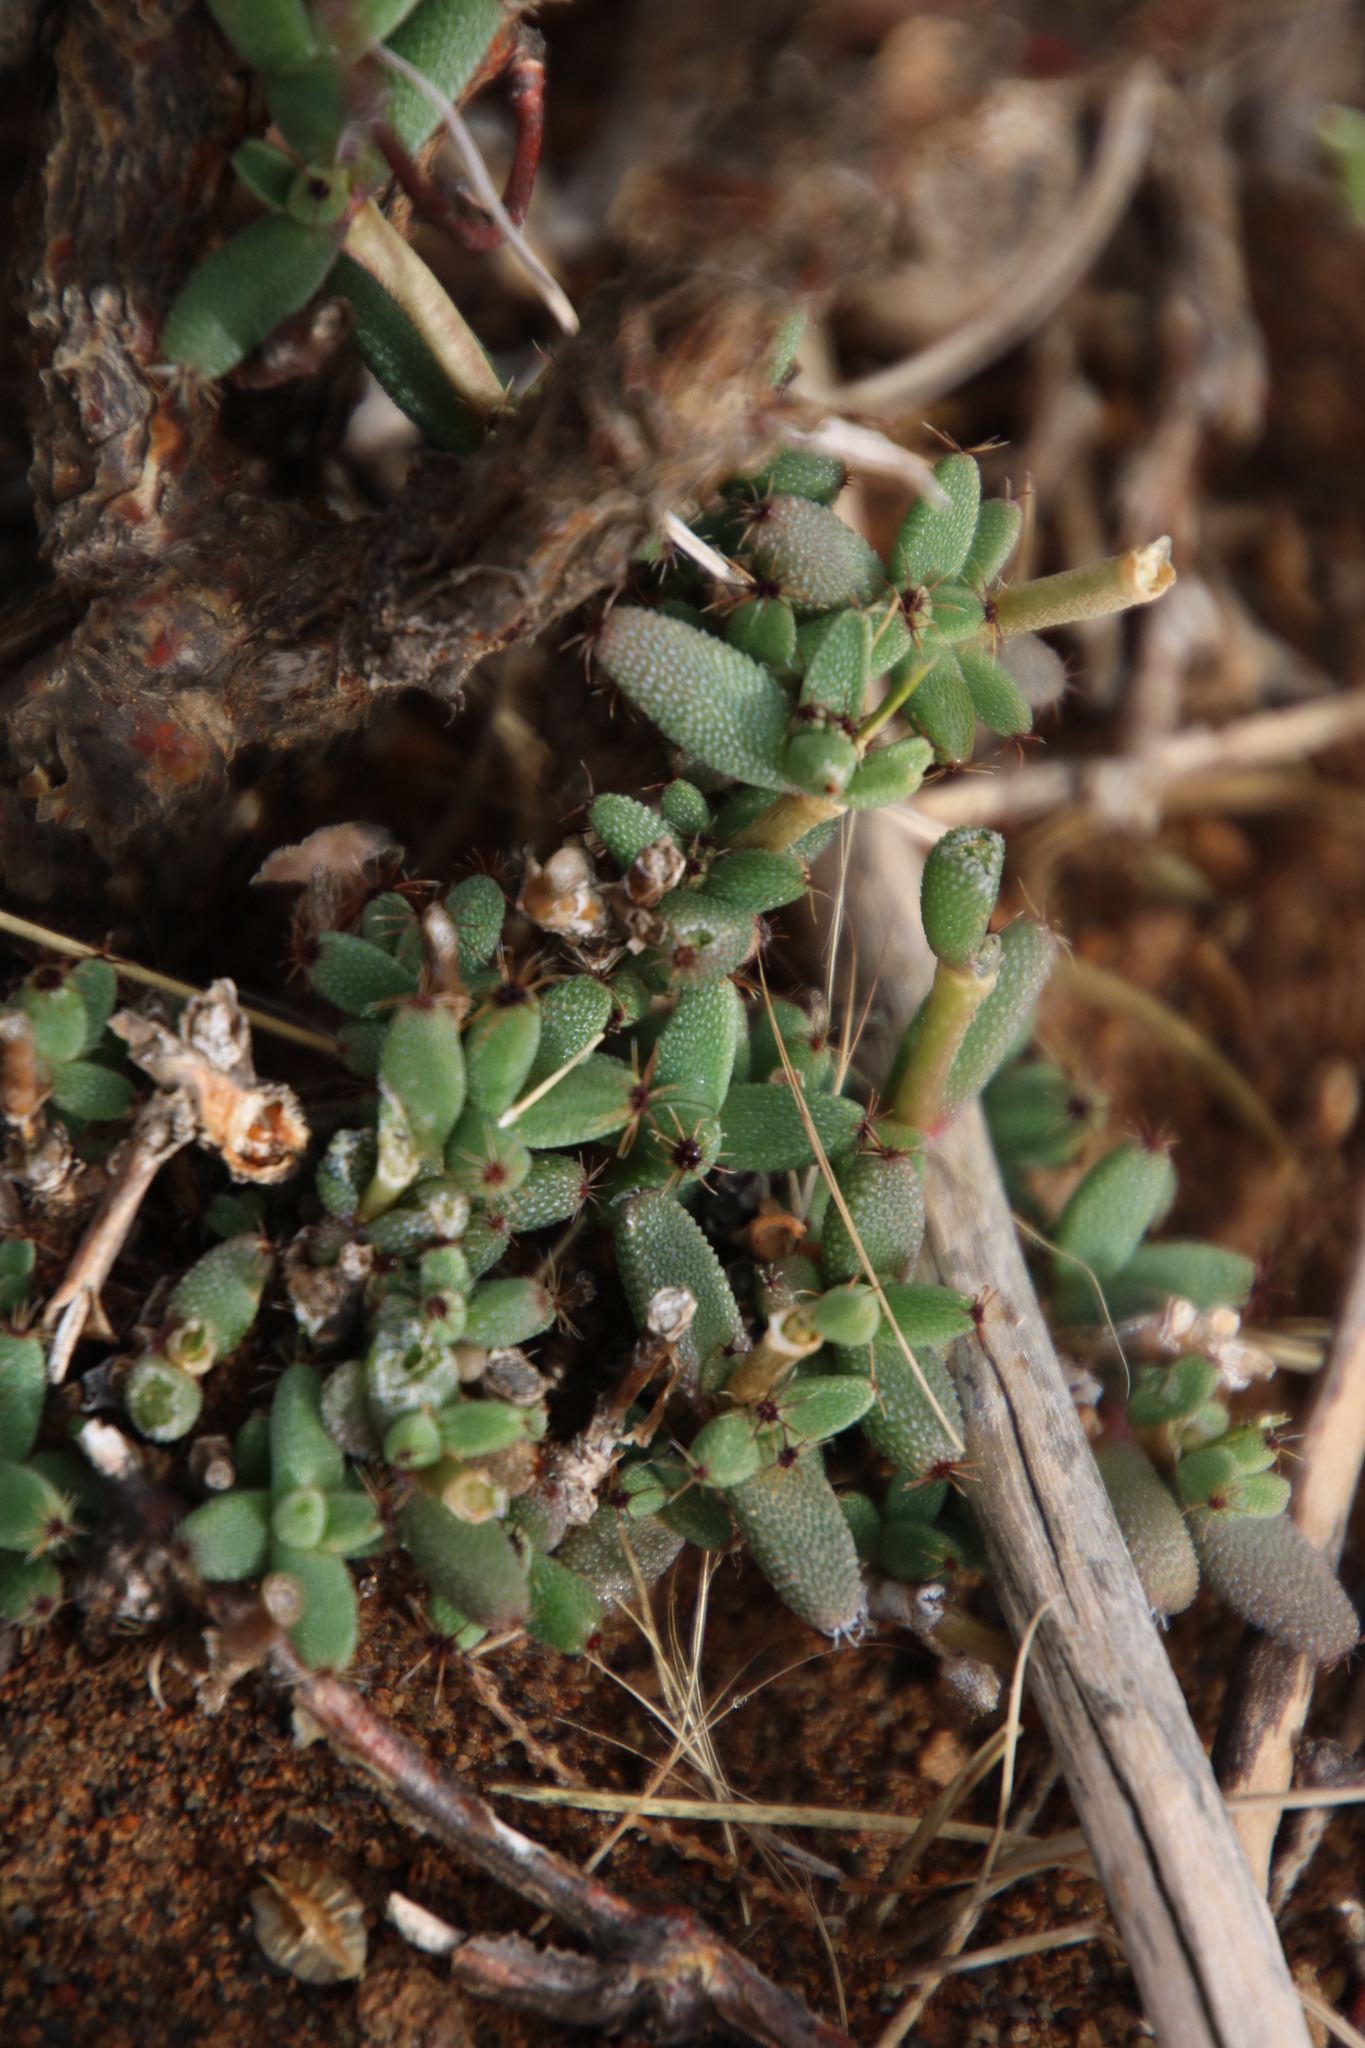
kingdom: Plantae
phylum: Tracheophyta
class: Magnoliopsida
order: Caryophyllales
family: Aizoaceae
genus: Trichodiadema
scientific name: Trichodiadema setuliferum
